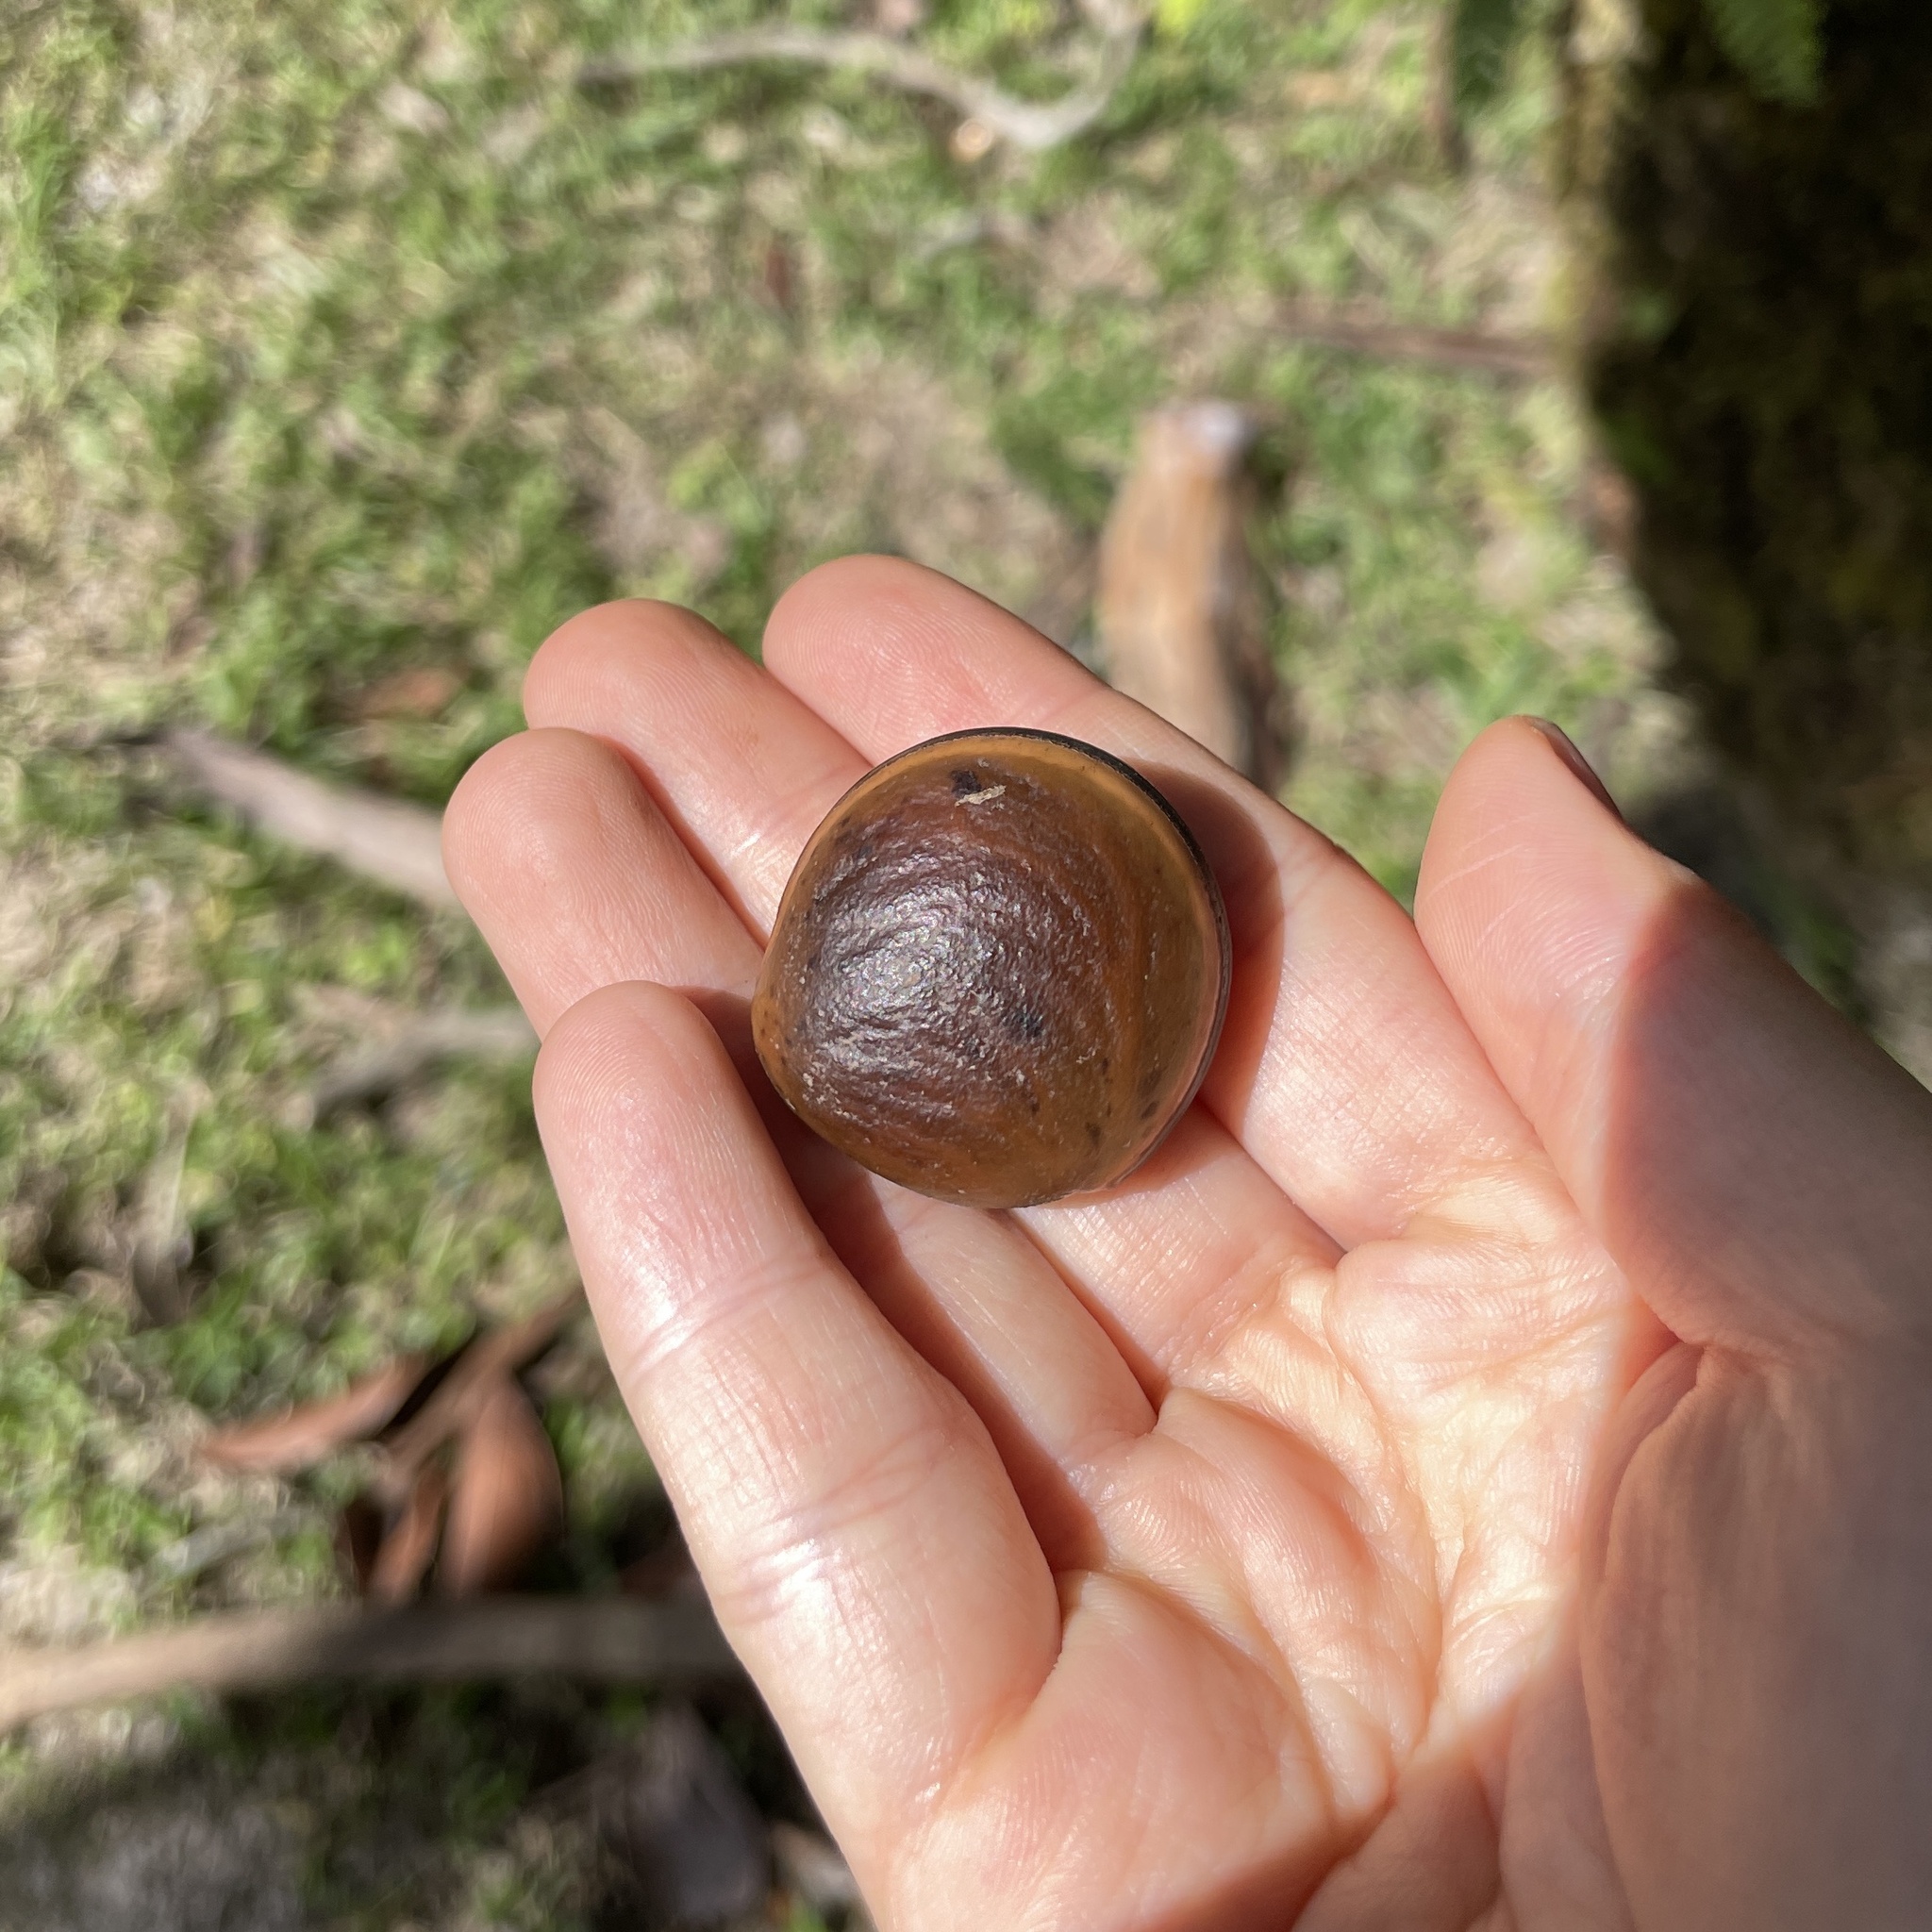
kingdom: Plantae
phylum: Tracheophyta
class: Magnoliopsida
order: Fabales
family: Fabaceae
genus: Mucuna
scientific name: Mucuna urens
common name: Red hamburger bean
